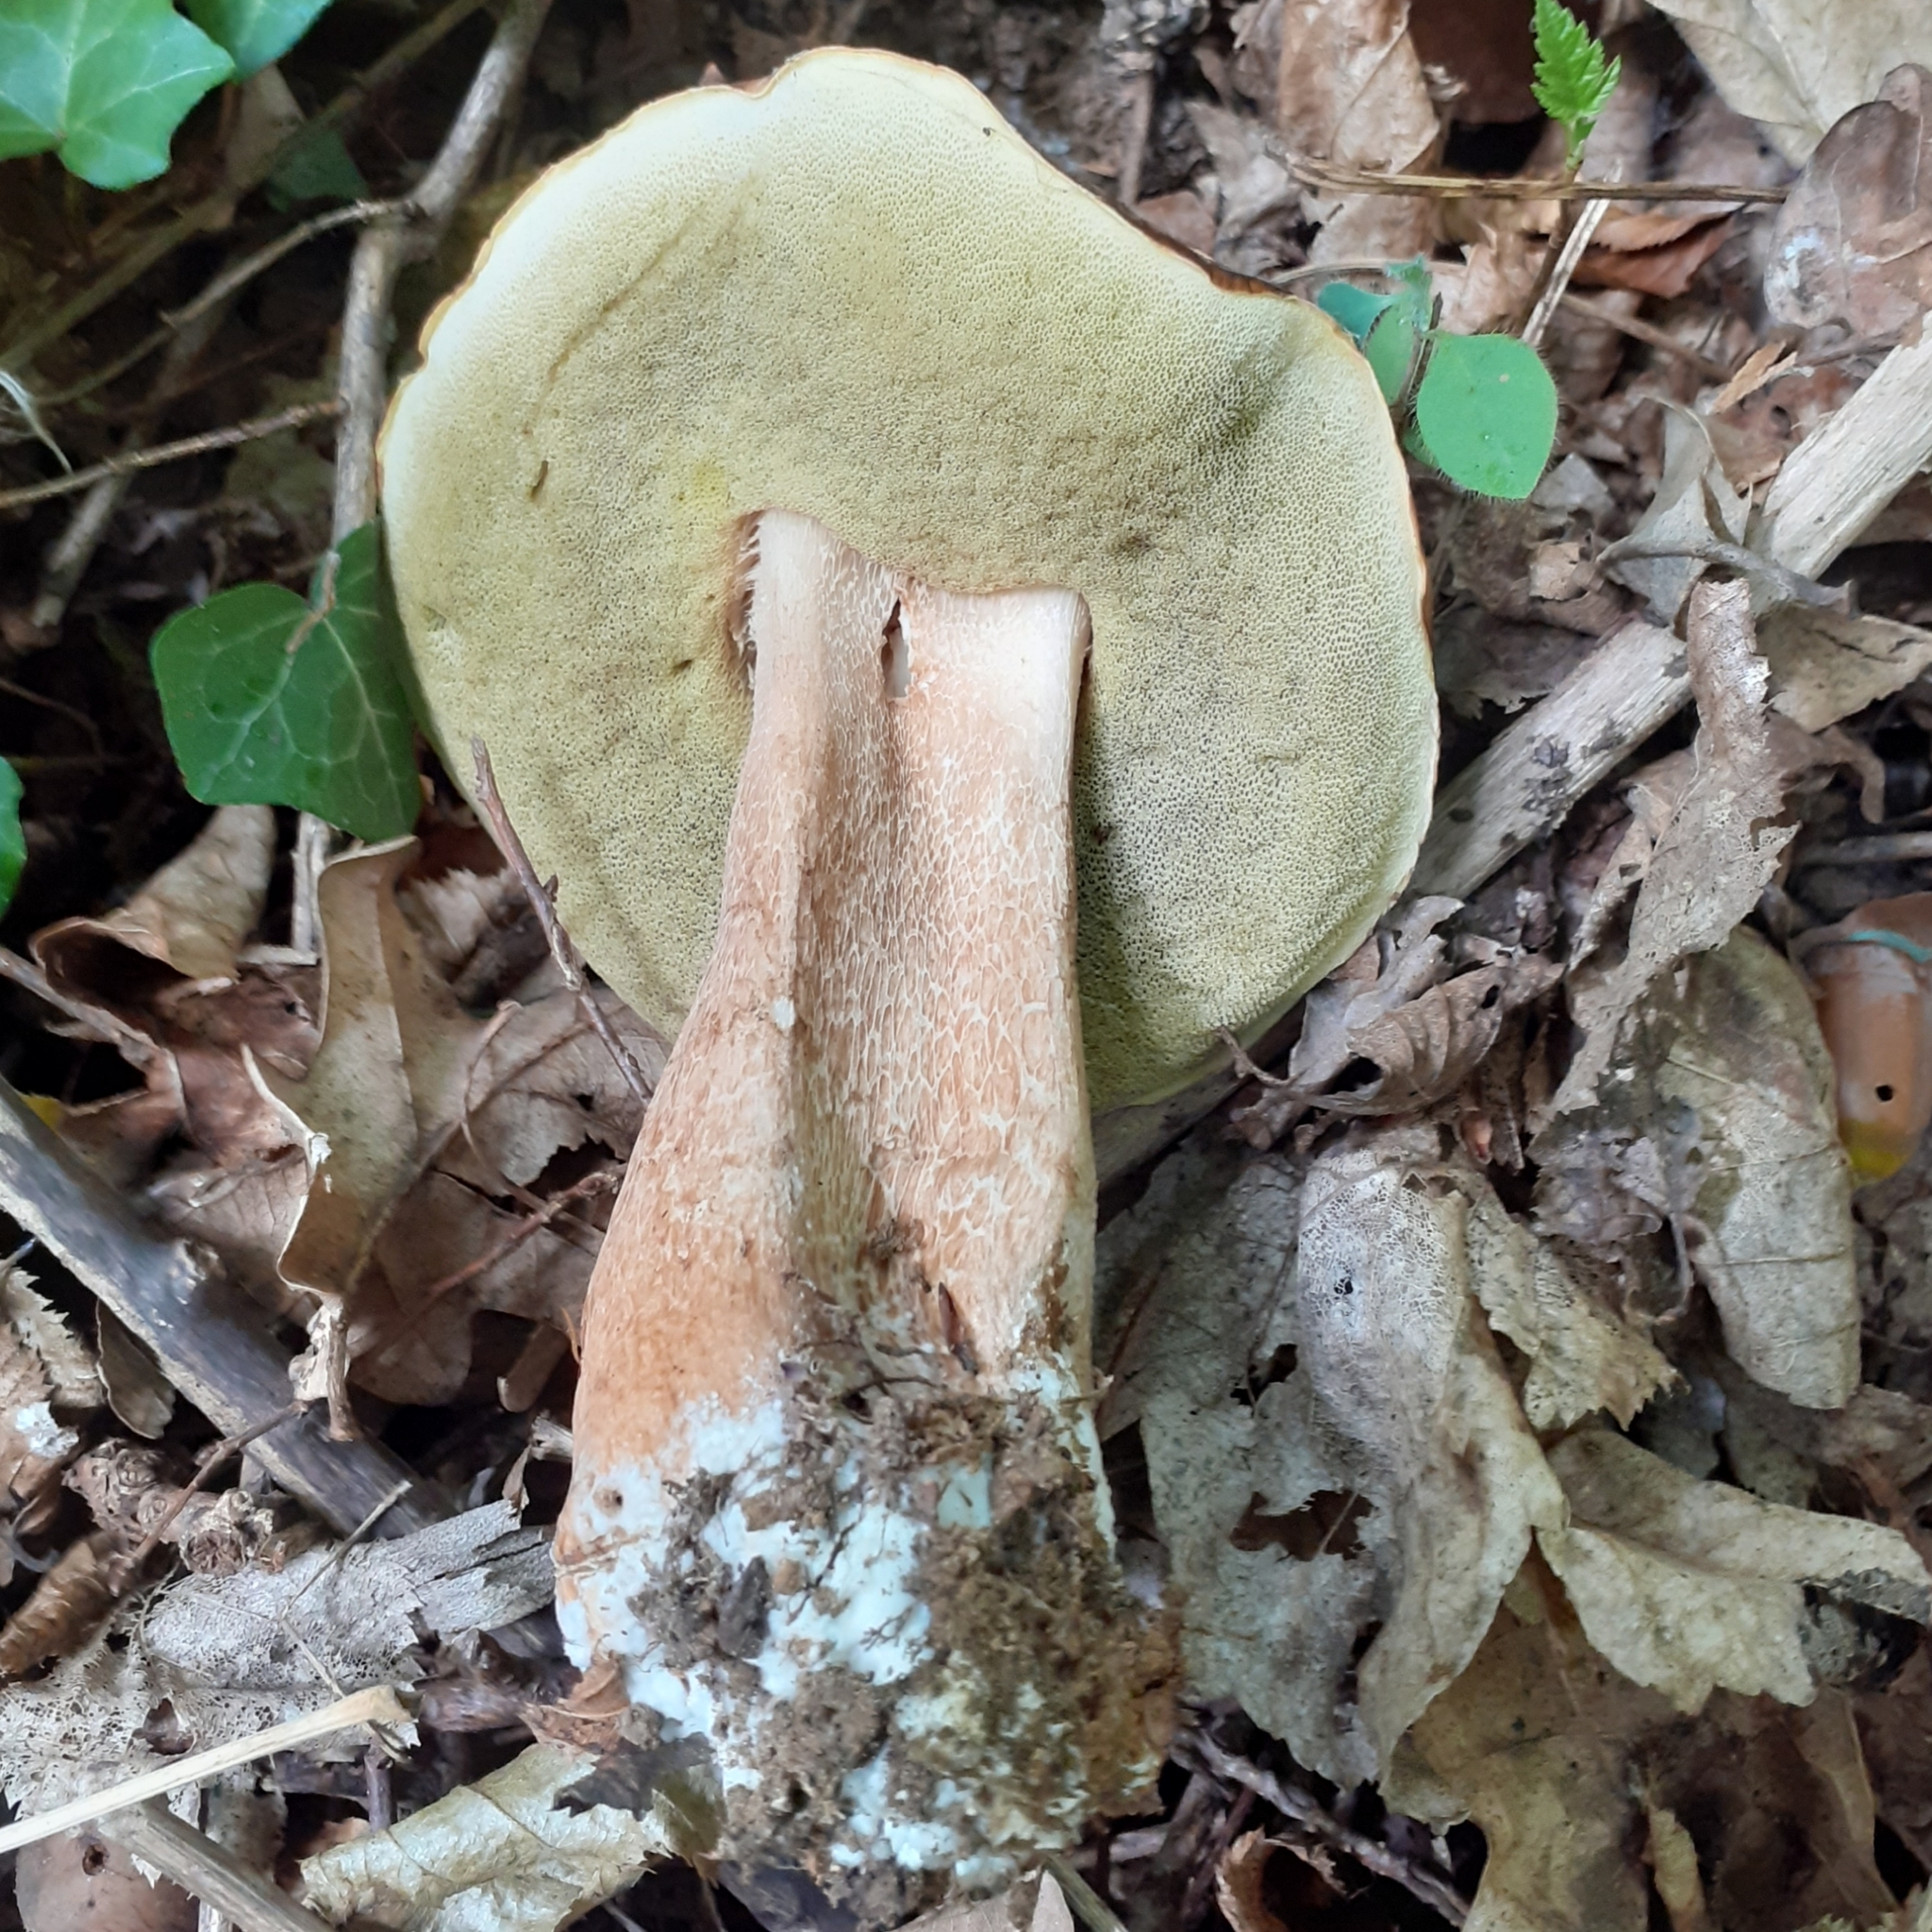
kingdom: Fungi
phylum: Basidiomycota
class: Agaricomycetes
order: Boletales
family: Boletaceae
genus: Boletus
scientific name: Boletus aereus
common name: Bronze bolete
